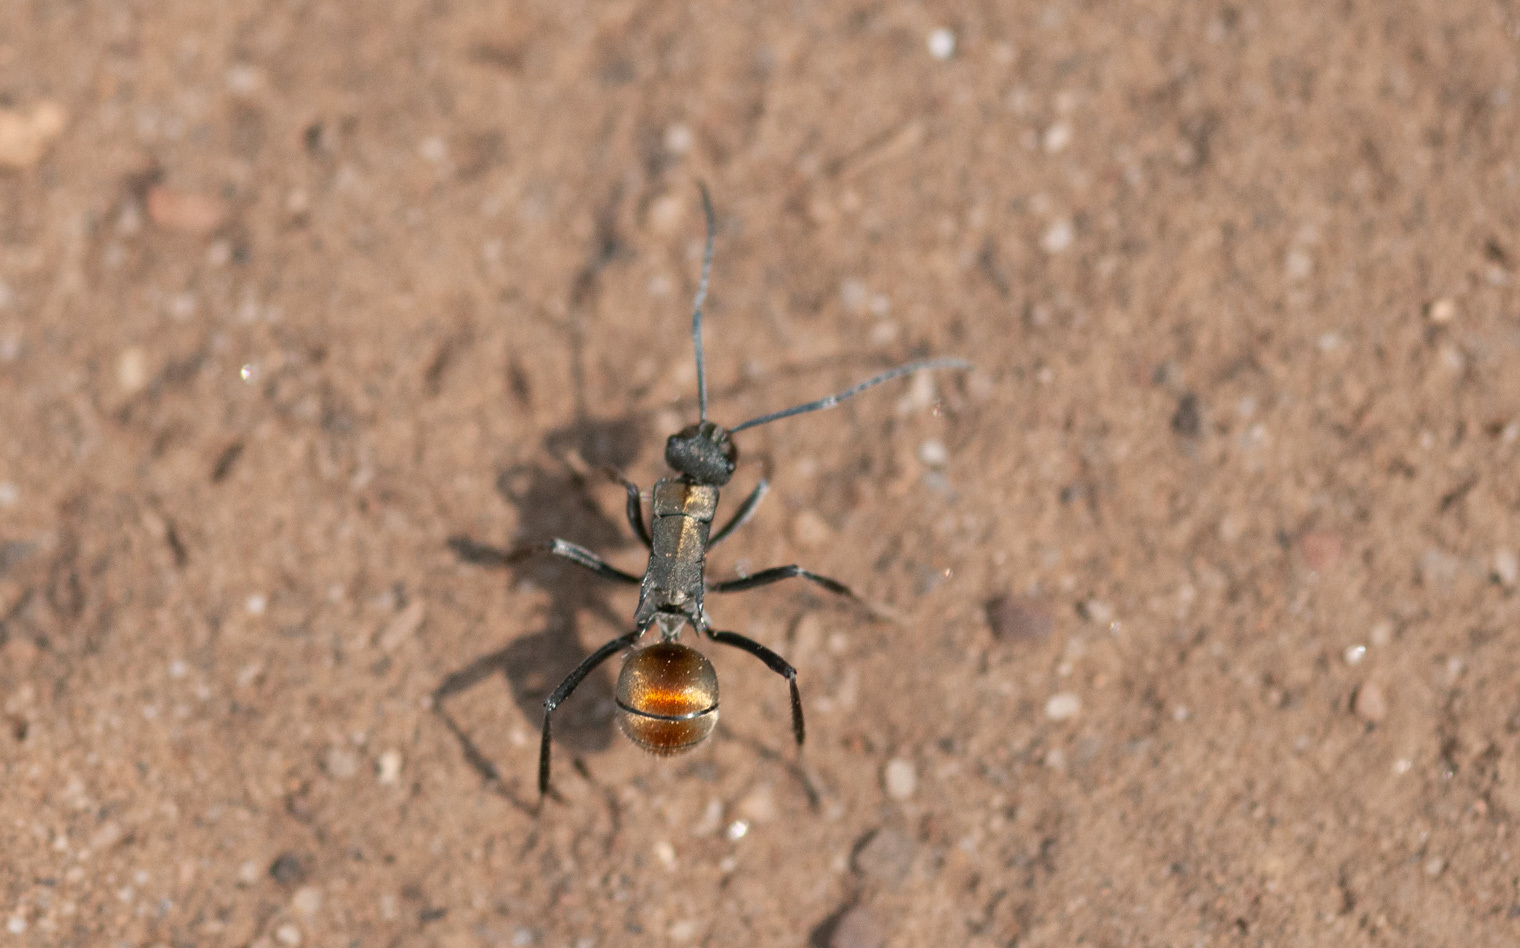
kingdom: Animalia
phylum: Arthropoda
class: Insecta
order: Hymenoptera
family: Formicidae
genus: Polyrhachis
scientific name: Polyrhachis ammon
